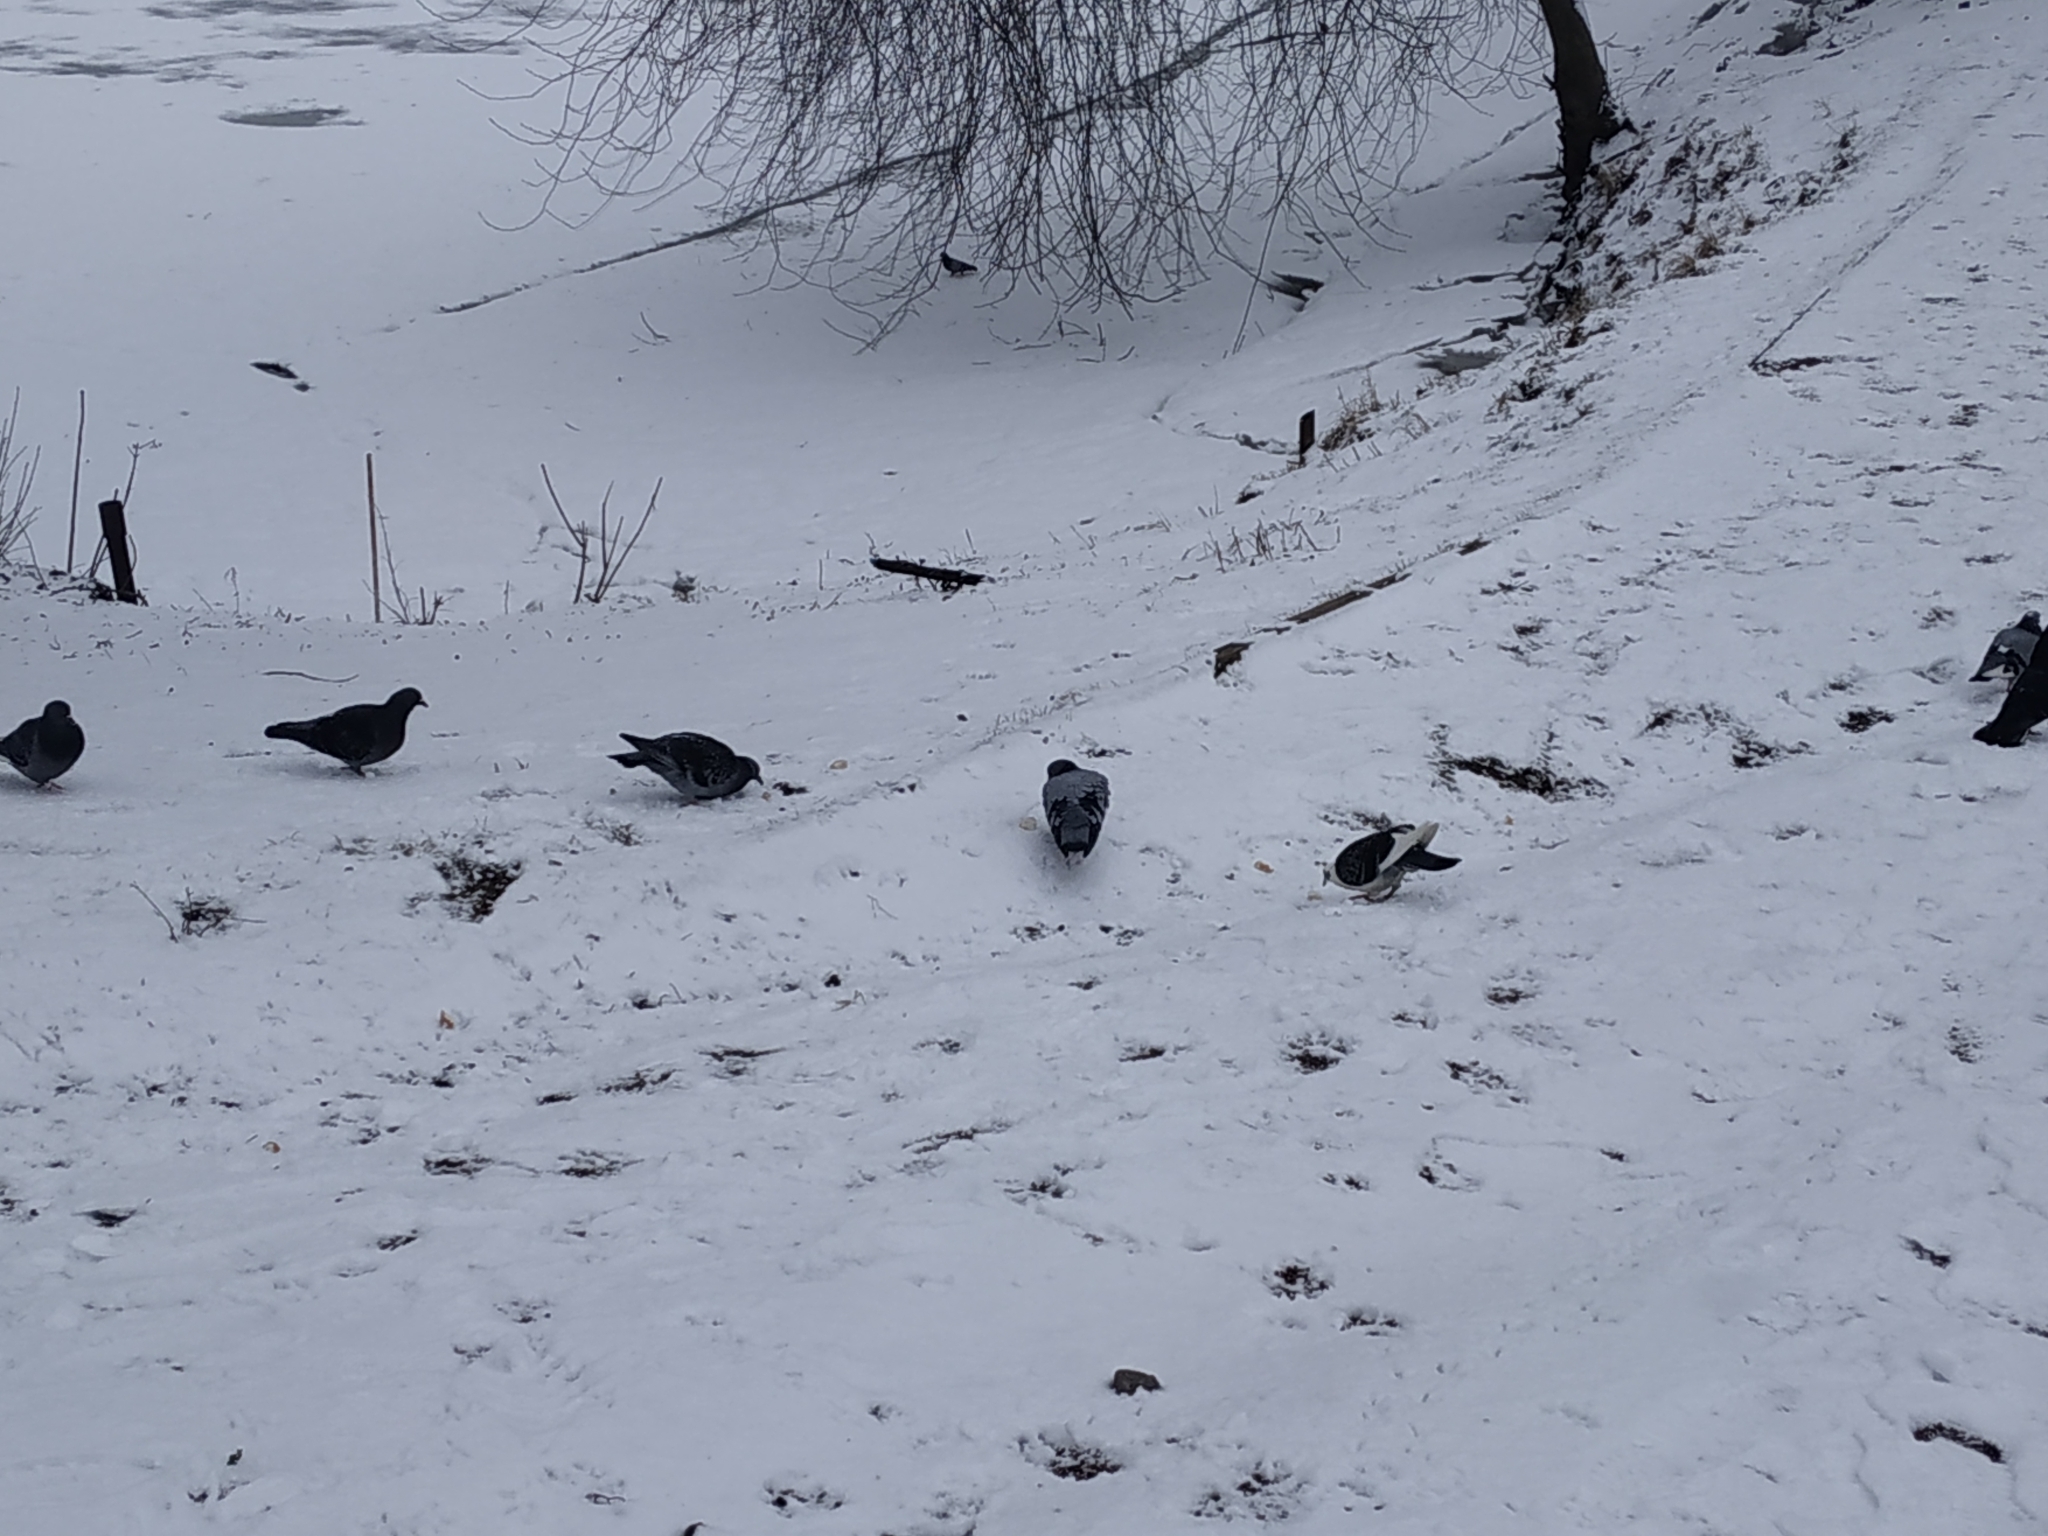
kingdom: Animalia
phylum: Chordata
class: Aves
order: Columbiformes
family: Columbidae
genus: Columba
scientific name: Columba livia
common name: Rock pigeon
